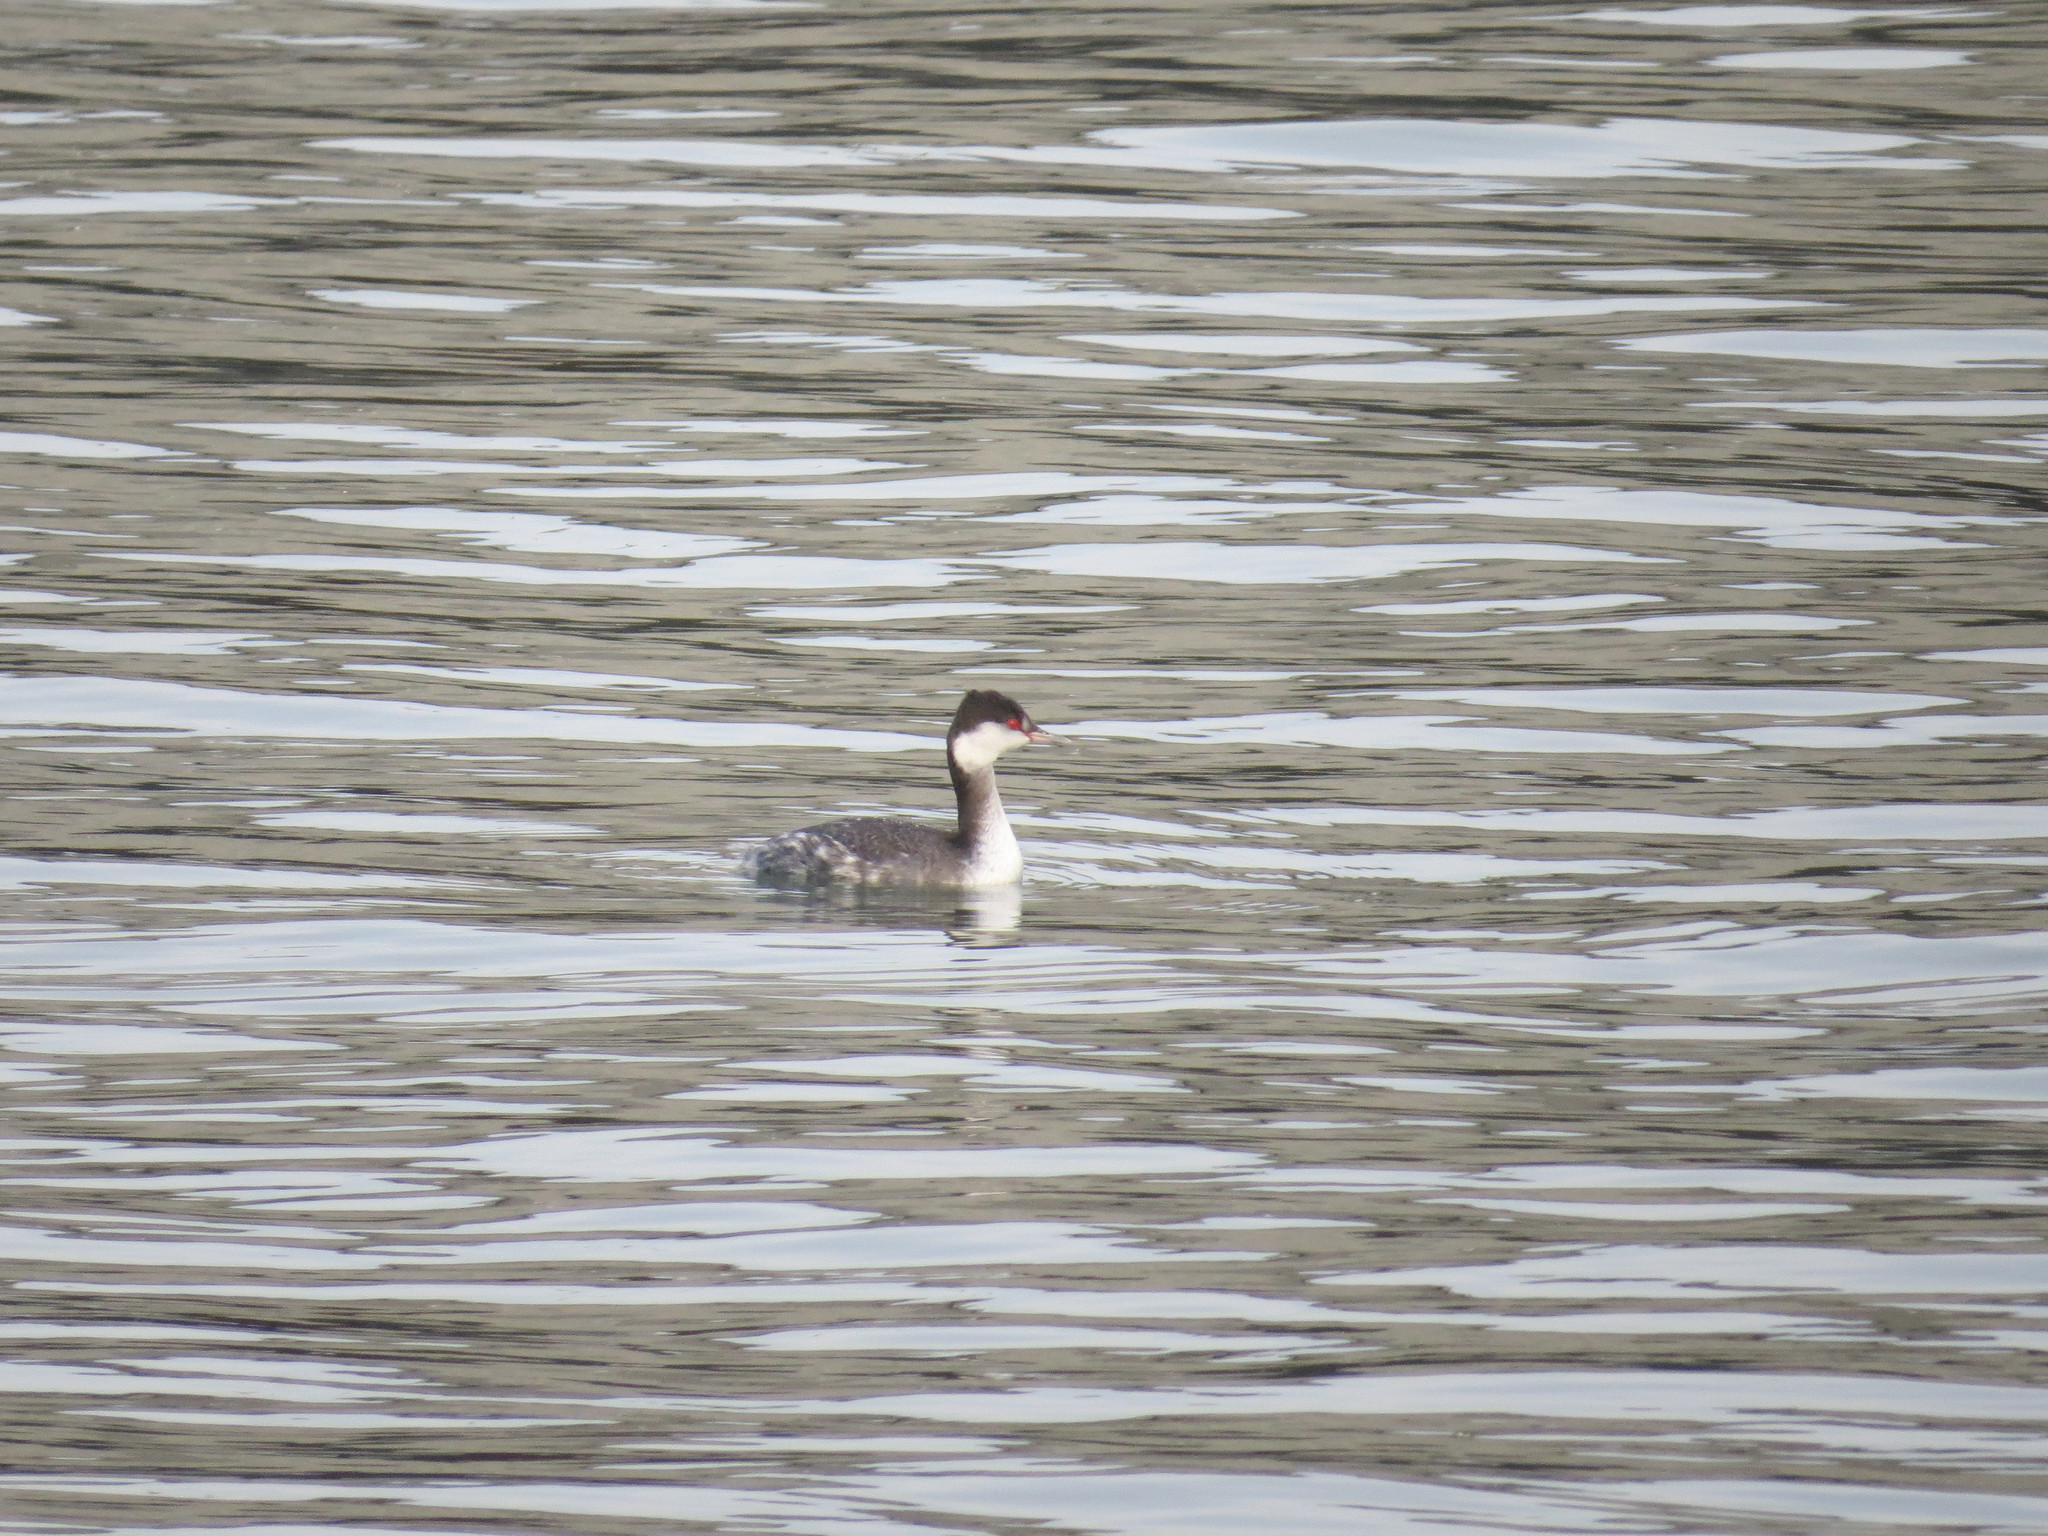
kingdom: Animalia
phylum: Chordata
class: Aves
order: Podicipediformes
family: Podicipedidae
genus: Podiceps
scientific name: Podiceps auritus
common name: Horned grebe
